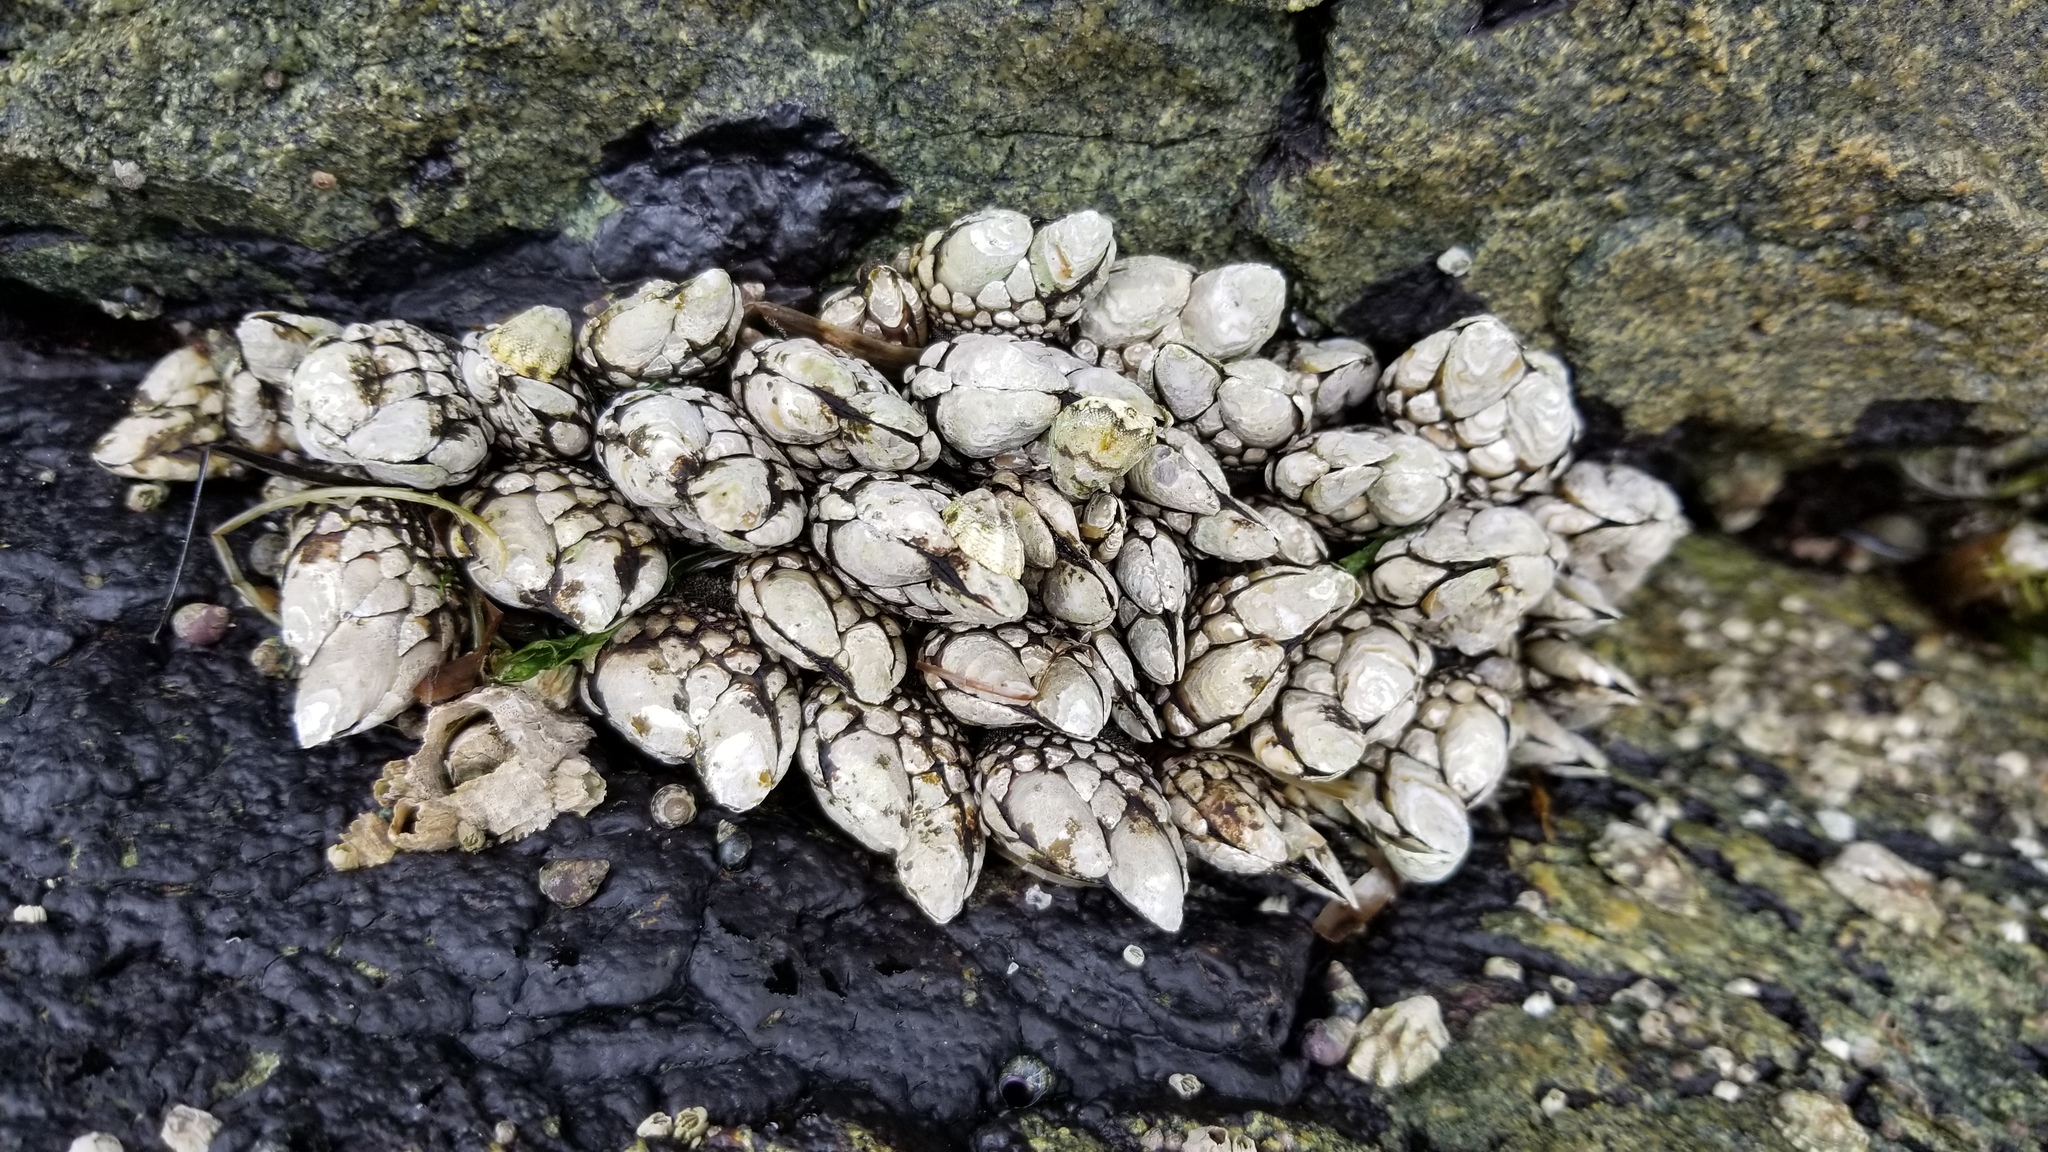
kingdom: Animalia
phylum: Arthropoda
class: Maxillopoda
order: Pedunculata
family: Pollicipedidae
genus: Pollicipes
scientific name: Pollicipes polymerus
